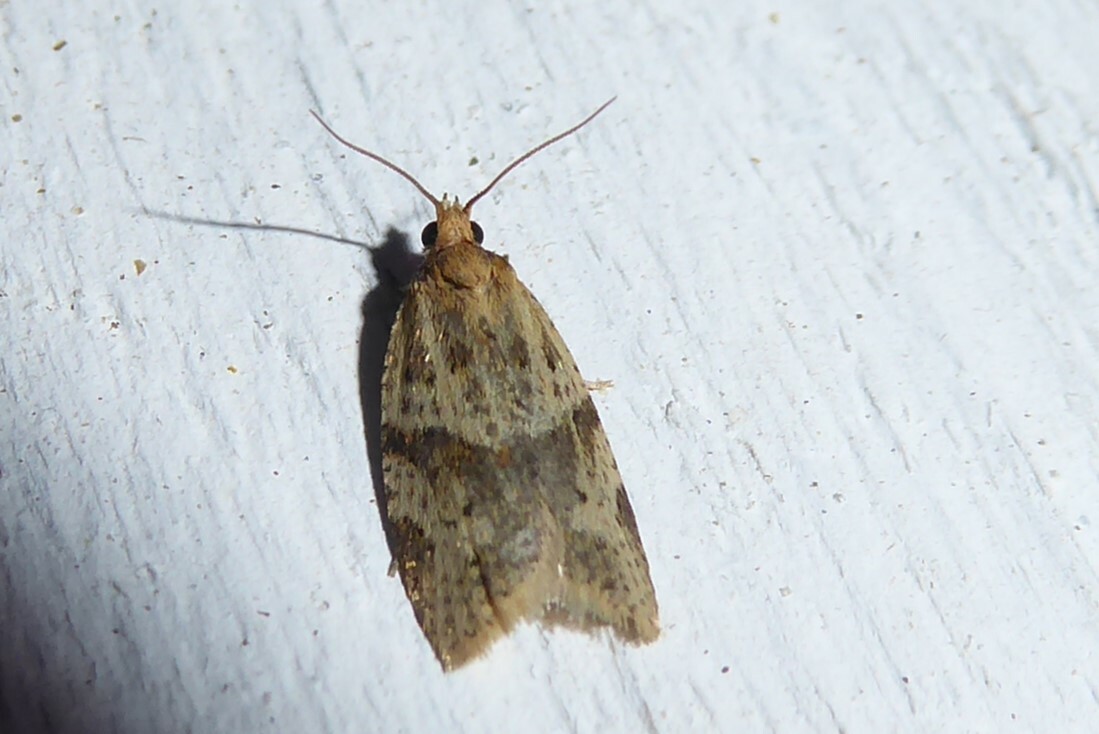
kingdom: Animalia
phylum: Arthropoda
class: Insecta
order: Lepidoptera
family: Tortricidae
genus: Clepsis
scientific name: Clepsis
